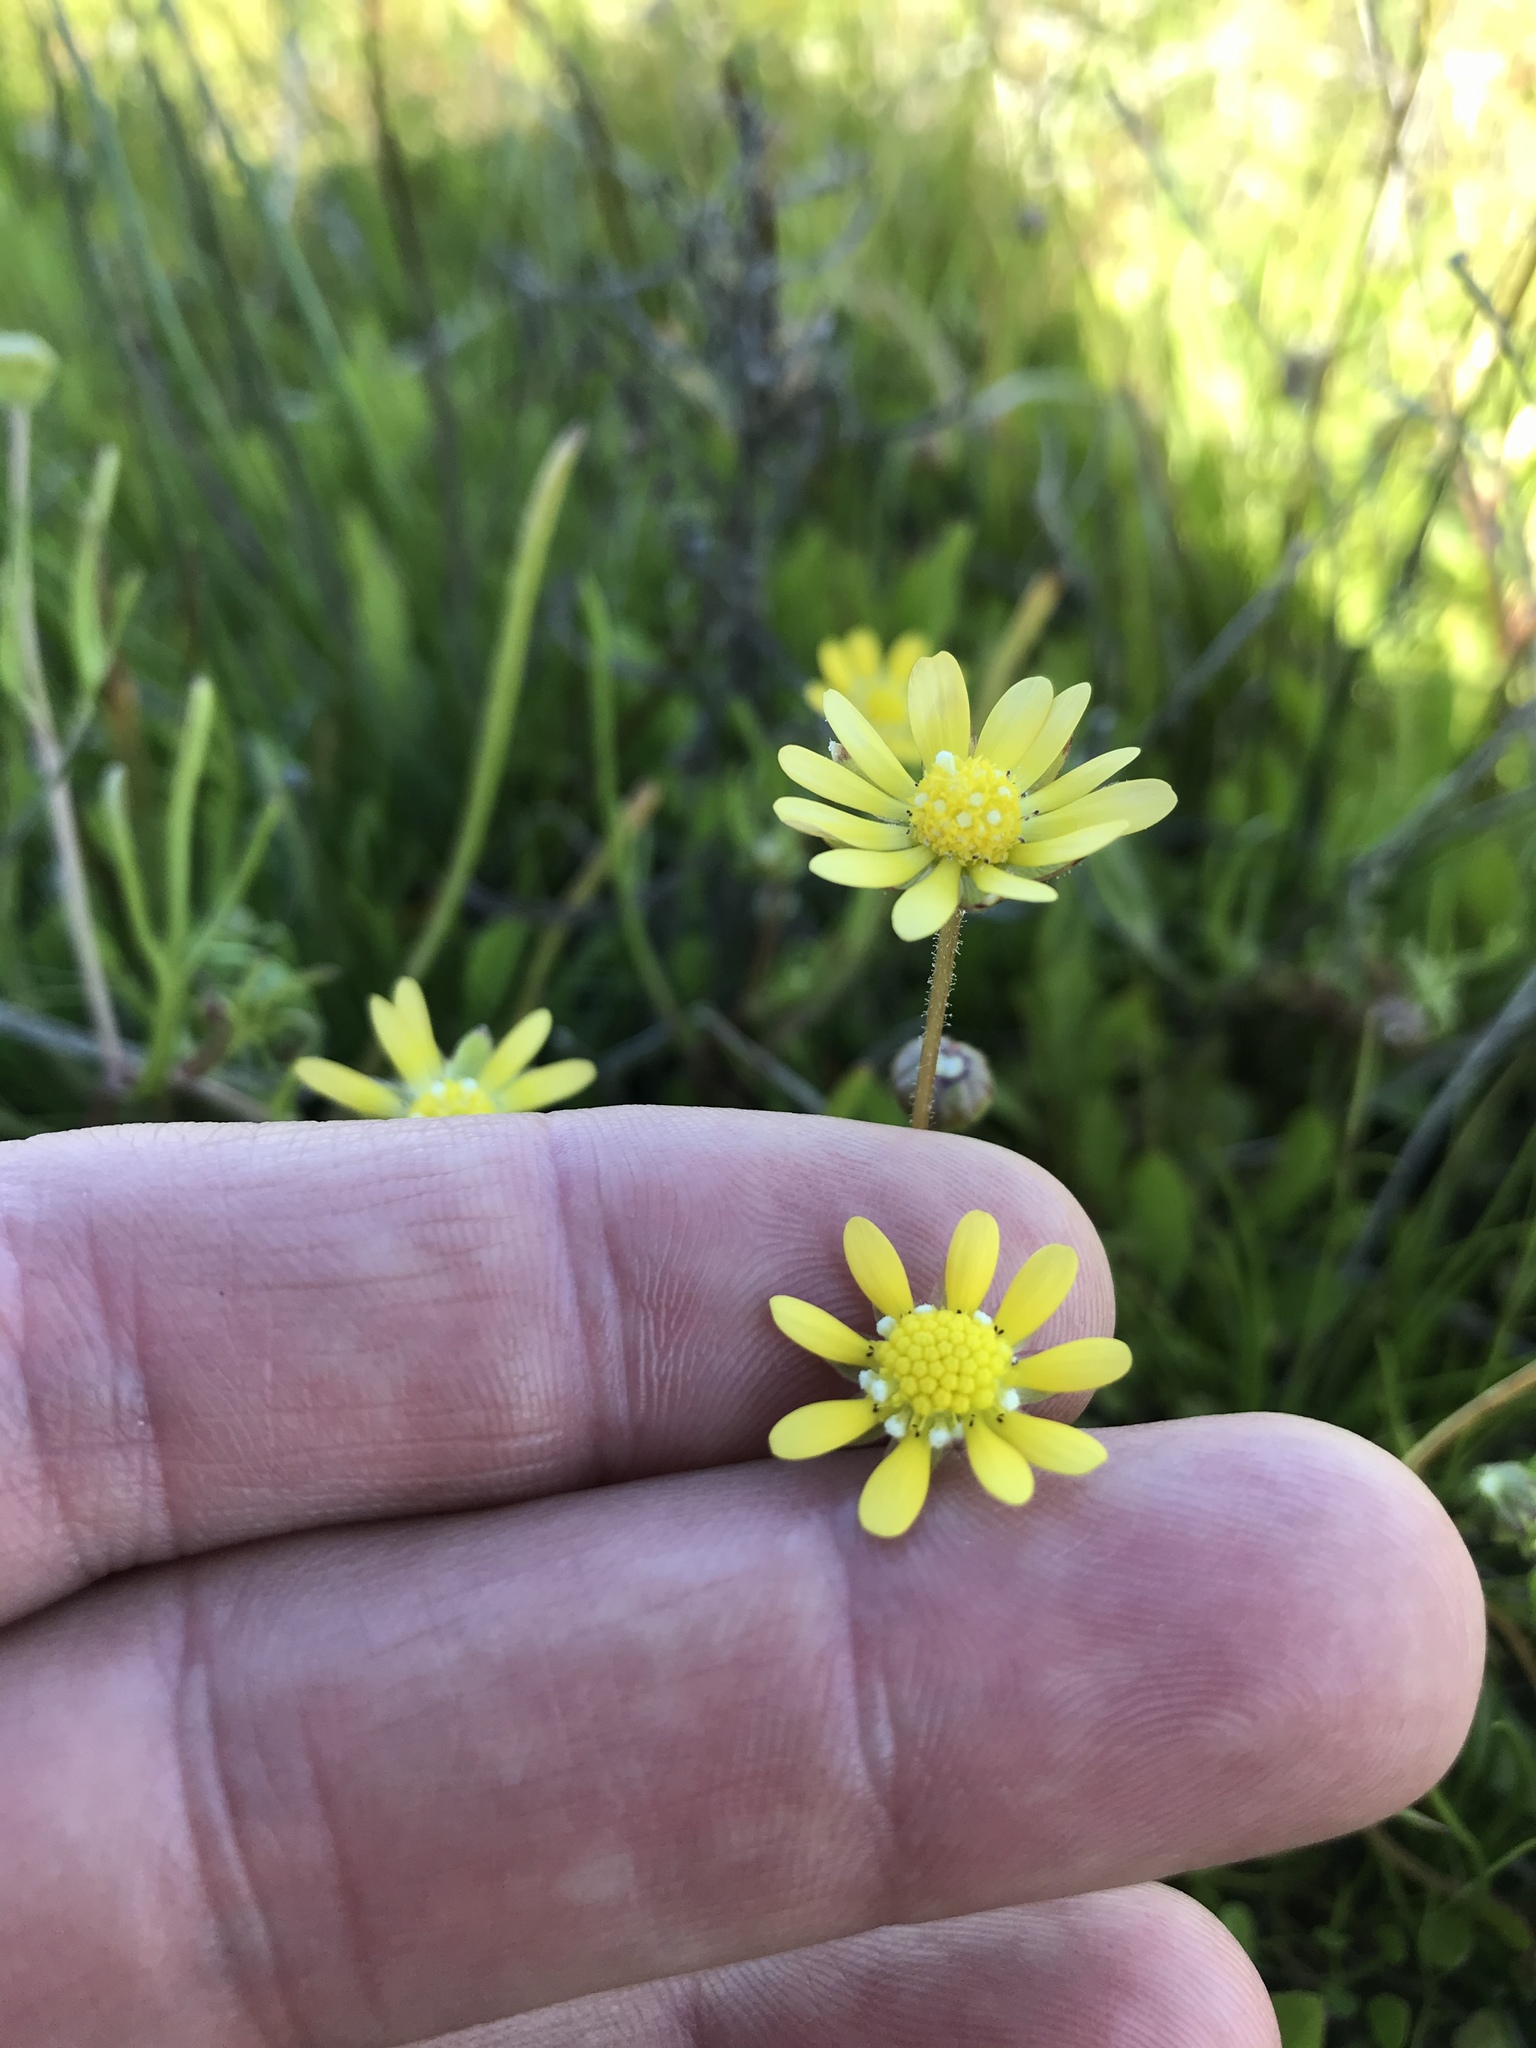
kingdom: Plantae
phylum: Tracheophyta
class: Magnoliopsida
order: Asterales
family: Asteraceae
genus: Blennosperma
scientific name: Blennosperma bakeri
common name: Sonoma sunshine
